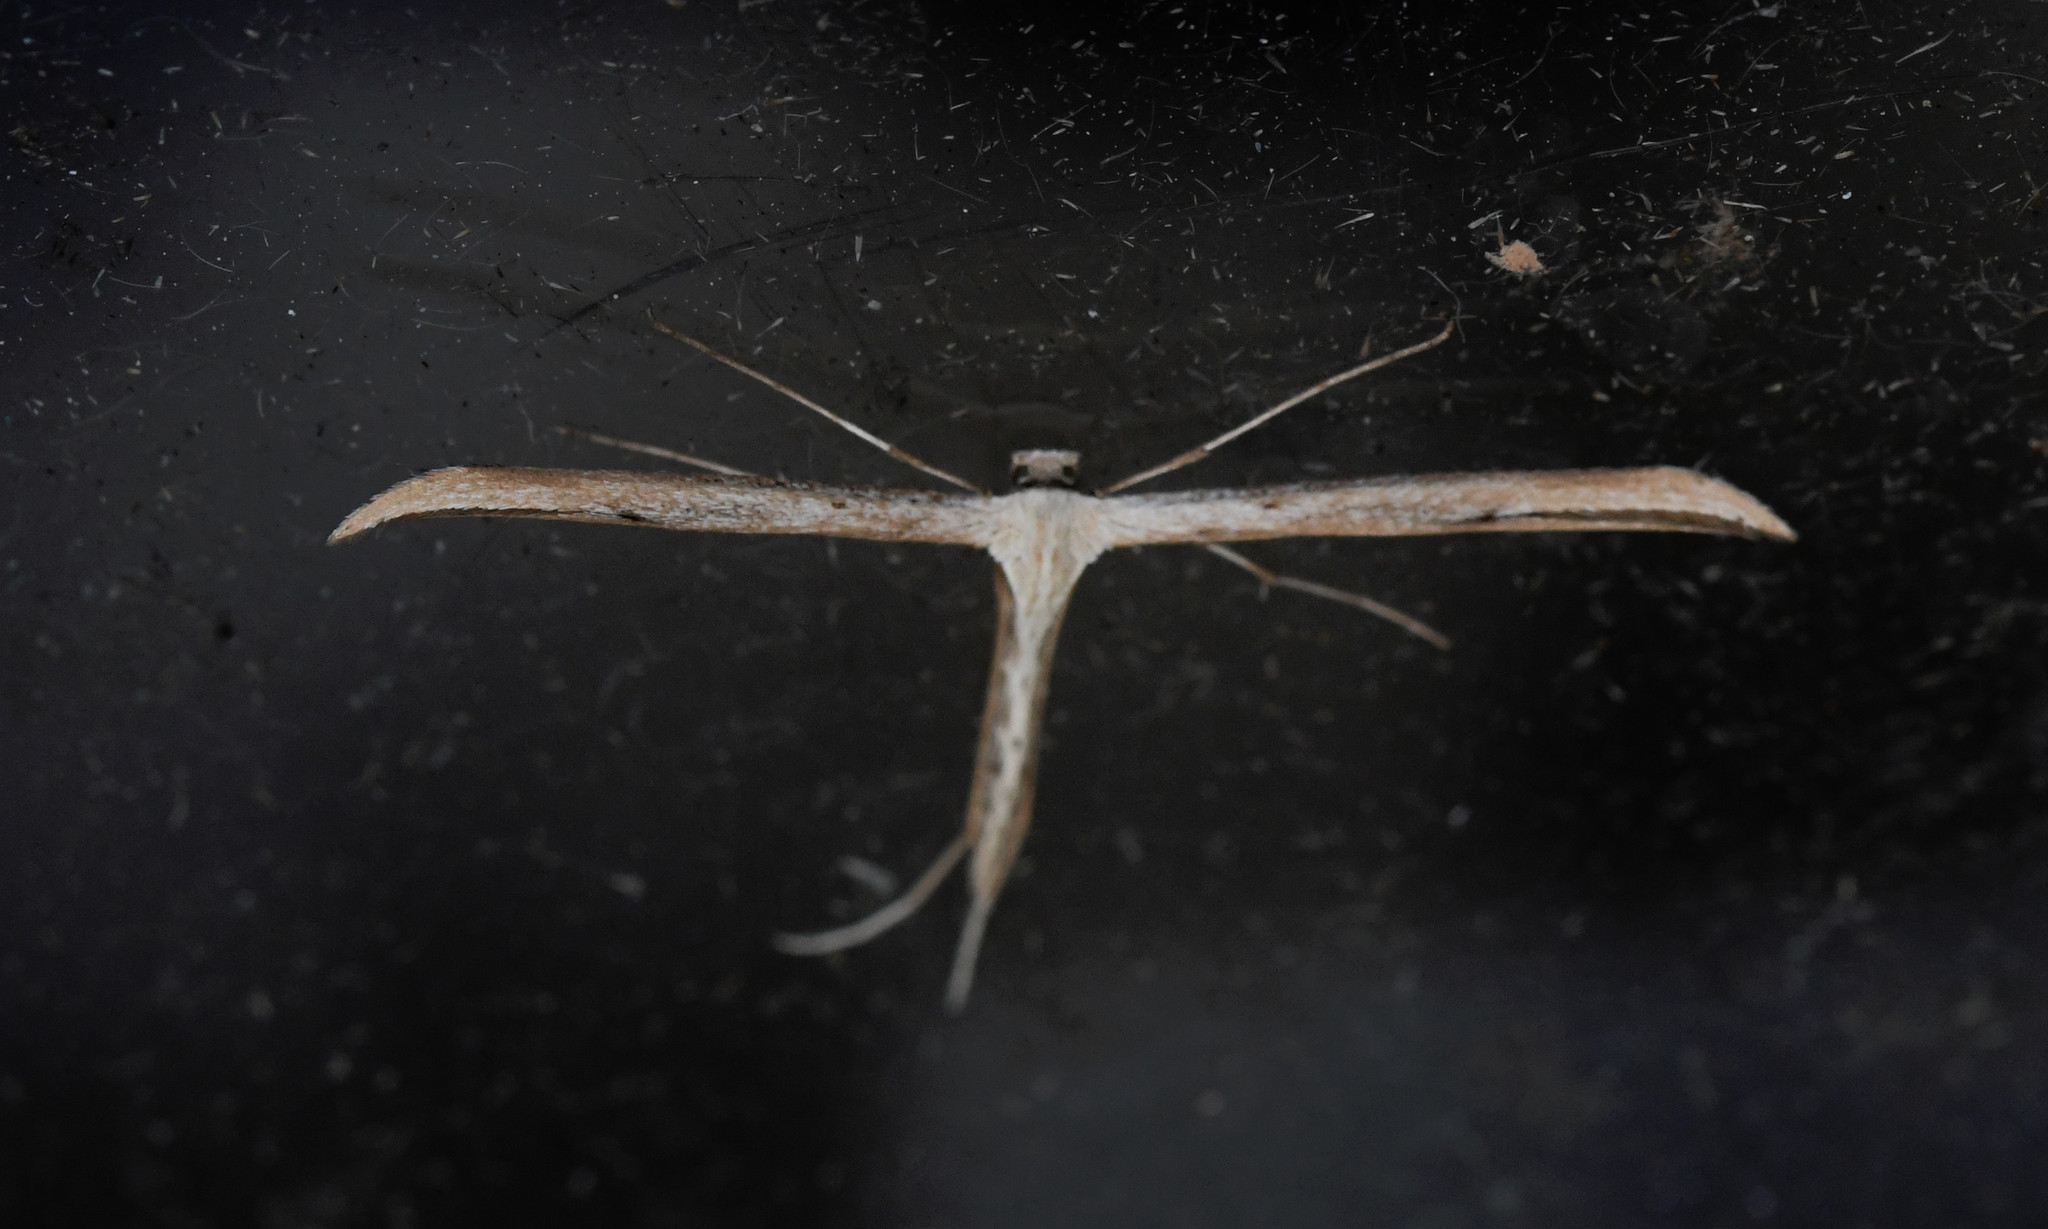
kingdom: Animalia
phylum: Arthropoda
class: Insecta
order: Lepidoptera
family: Pterophoridae
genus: Emmelina
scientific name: Emmelina monodactyla
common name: Common plume
